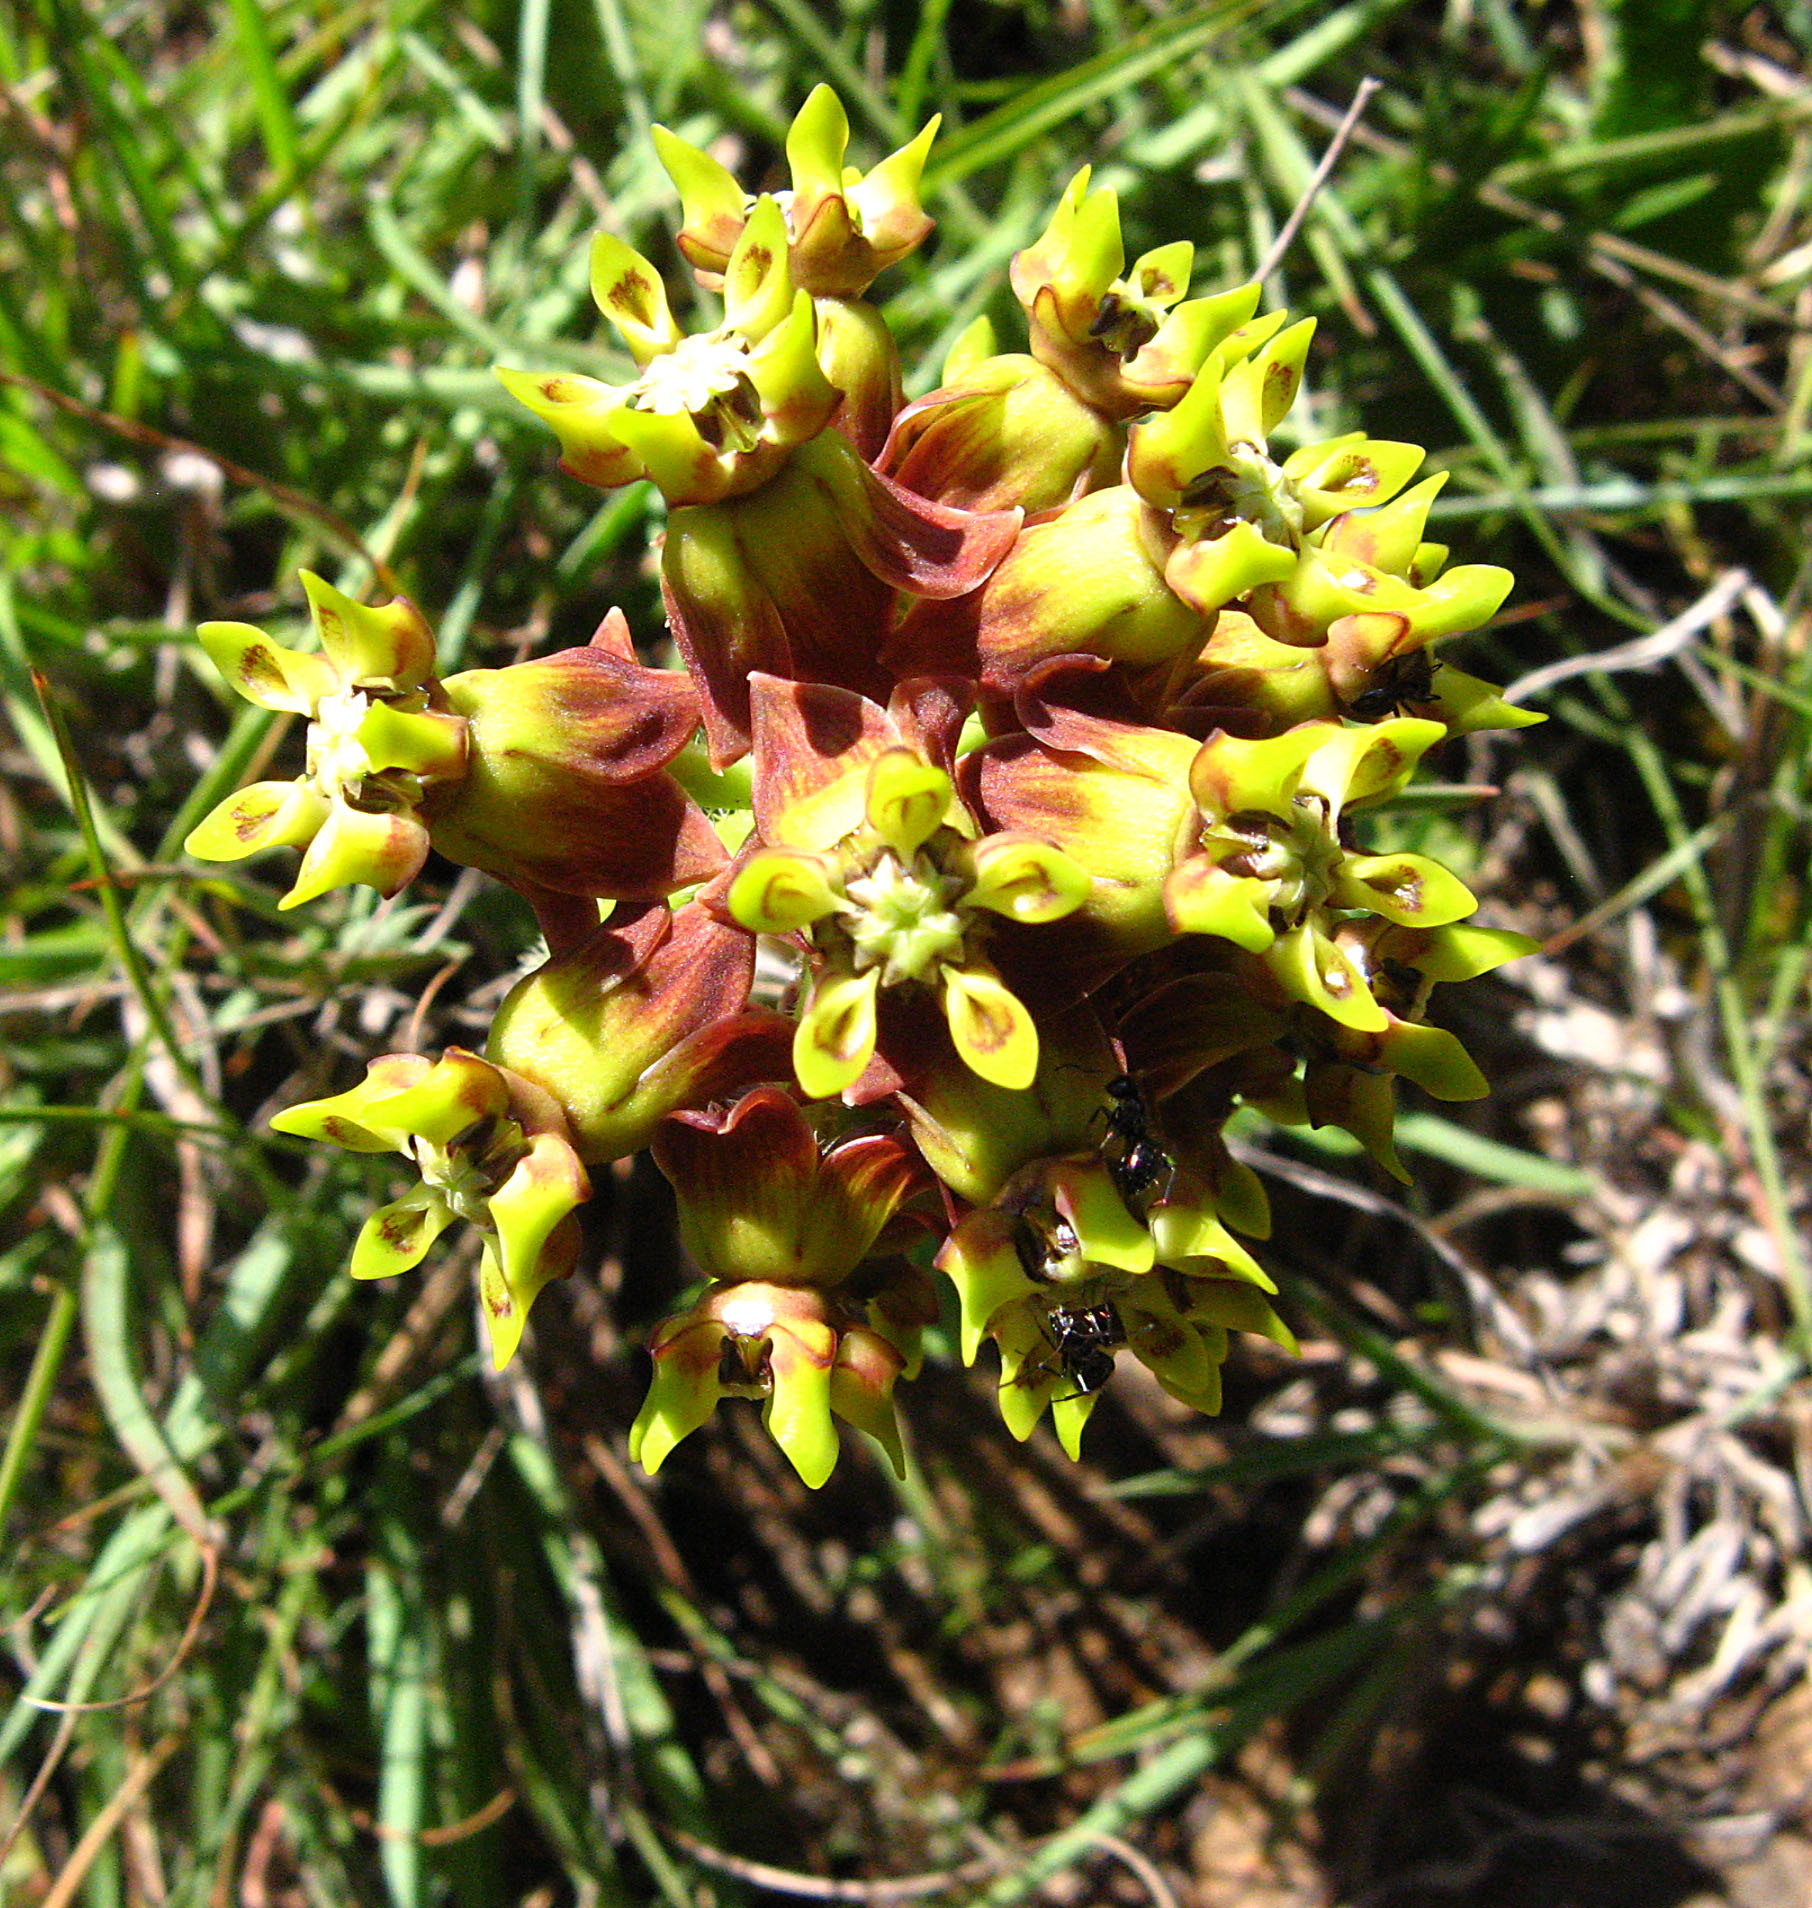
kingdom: Plantae
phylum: Tracheophyta
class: Magnoliopsida
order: Gentianales
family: Apocynaceae
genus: Asclepias
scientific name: Asclepias macropus
